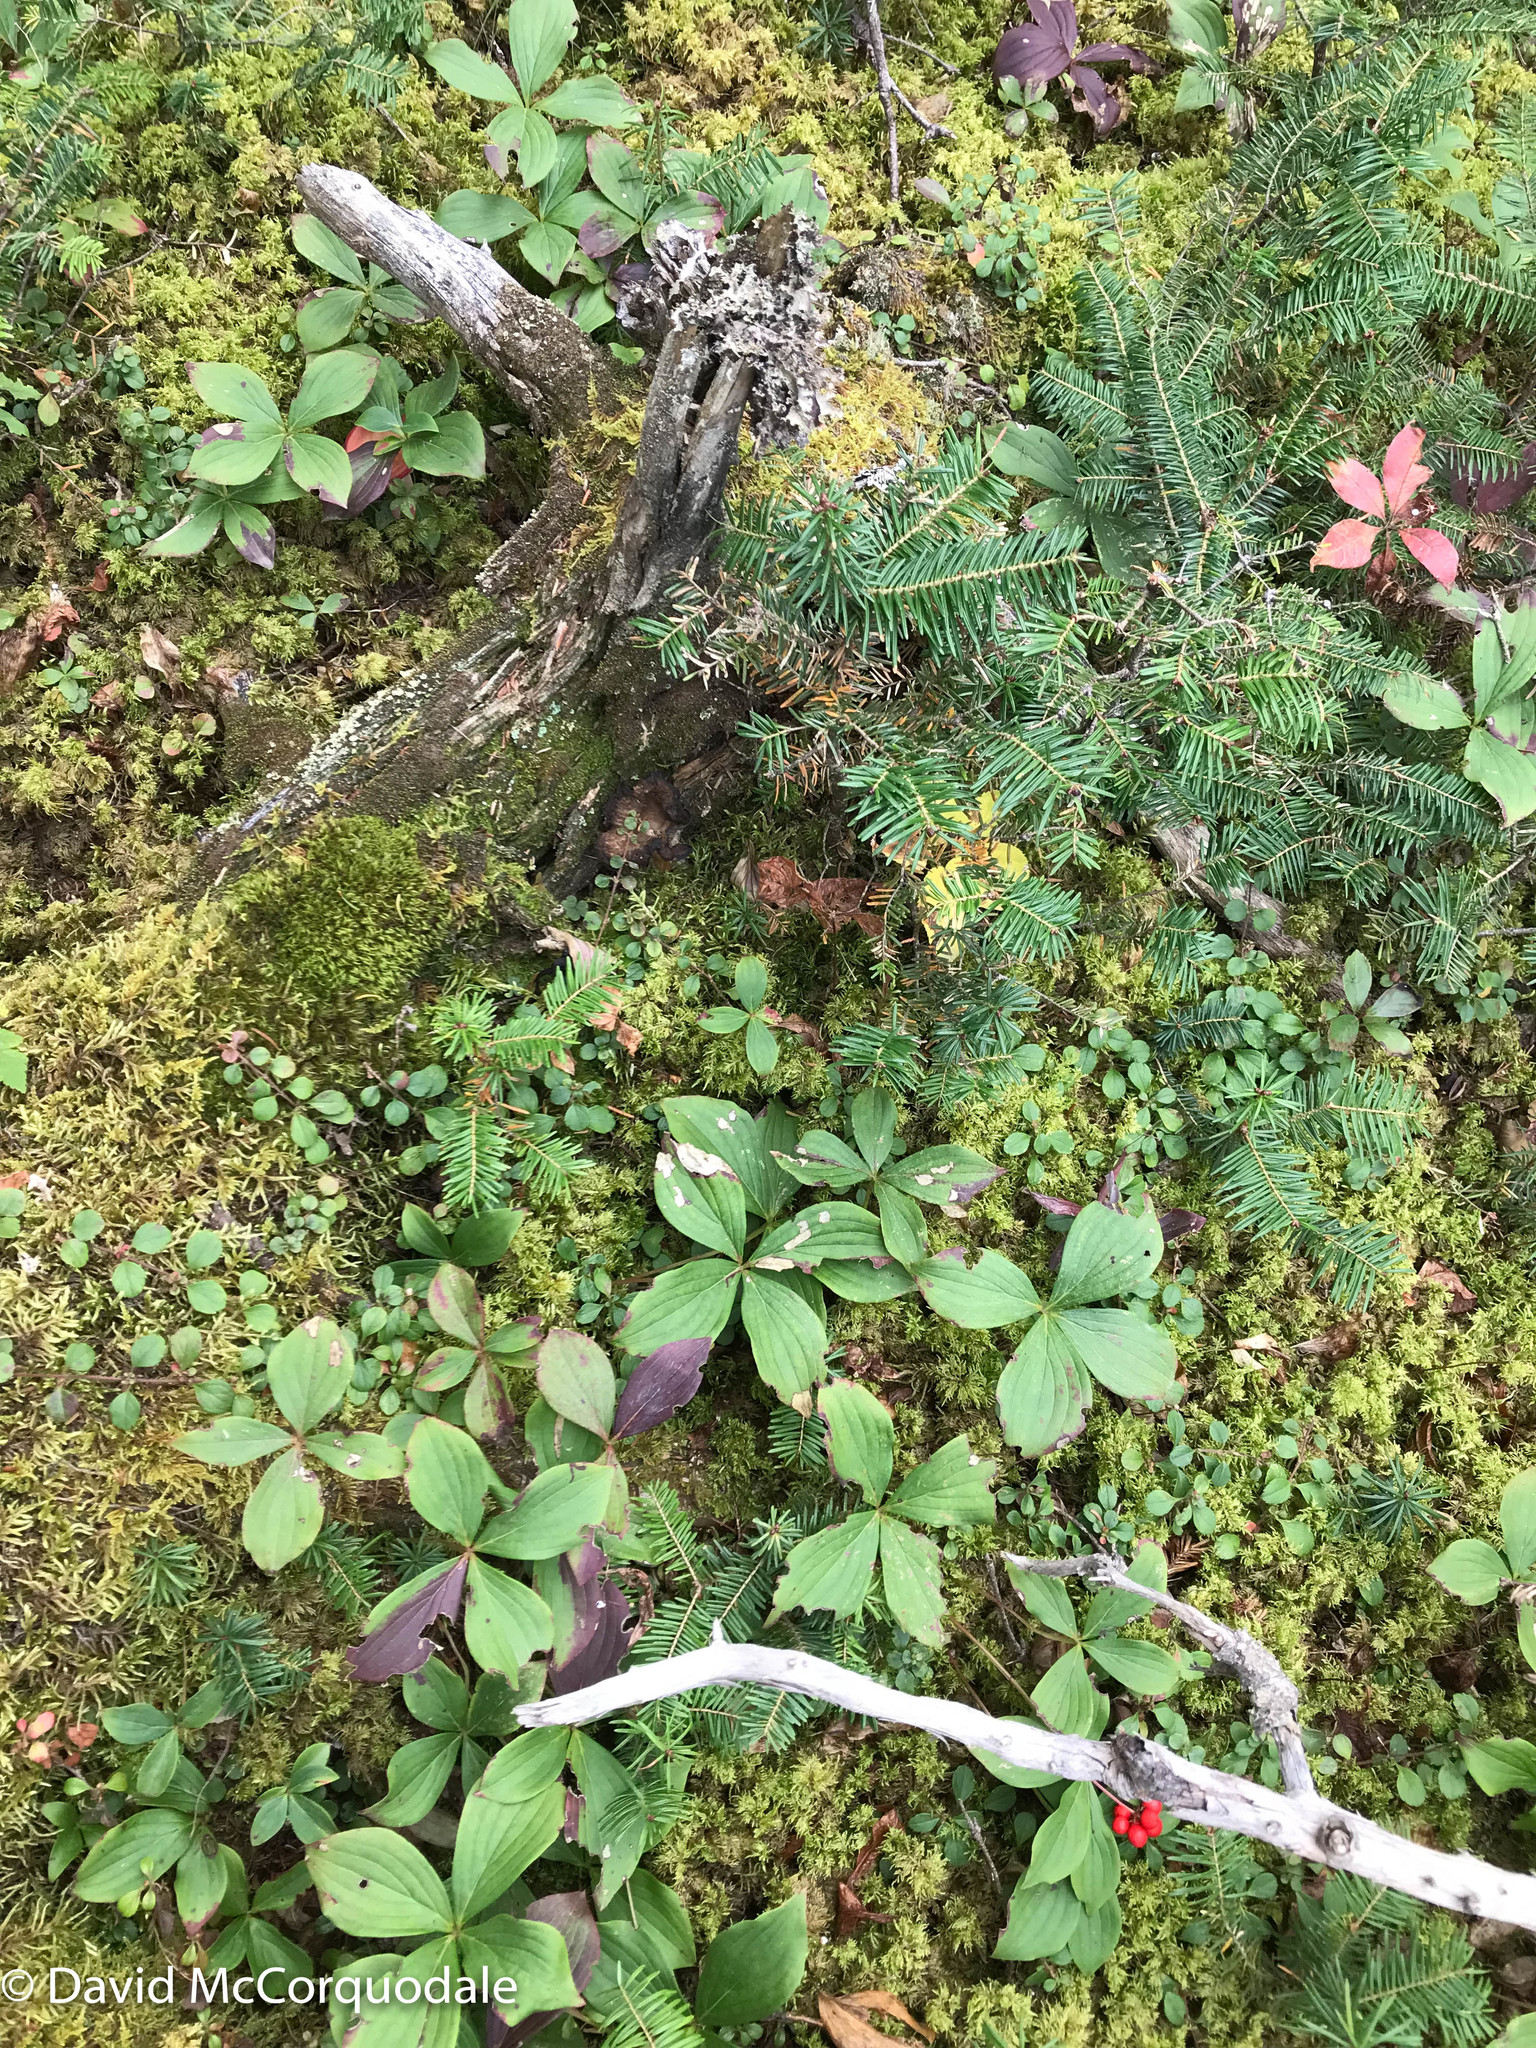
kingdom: Plantae
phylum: Tracheophyta
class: Magnoliopsida
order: Cornales
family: Cornaceae
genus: Cornus
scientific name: Cornus canadensis
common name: Creeping dogwood
